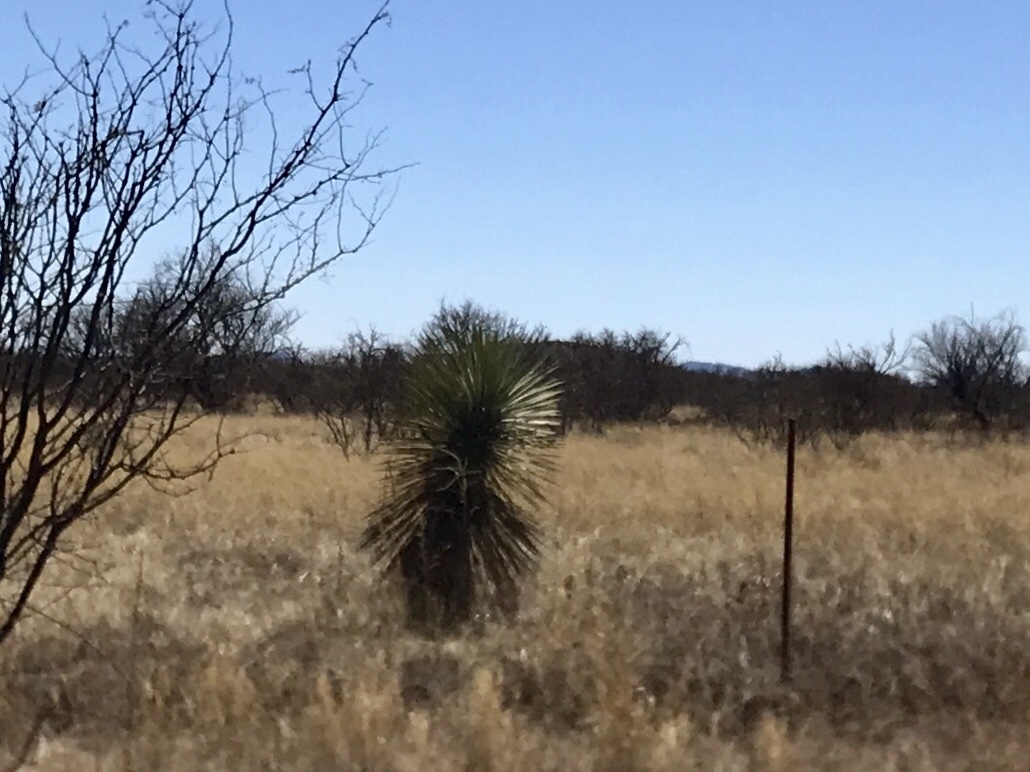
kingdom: Plantae
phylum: Tracheophyta
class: Liliopsida
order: Asparagales
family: Asparagaceae
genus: Yucca
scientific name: Yucca elata
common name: Palmella
